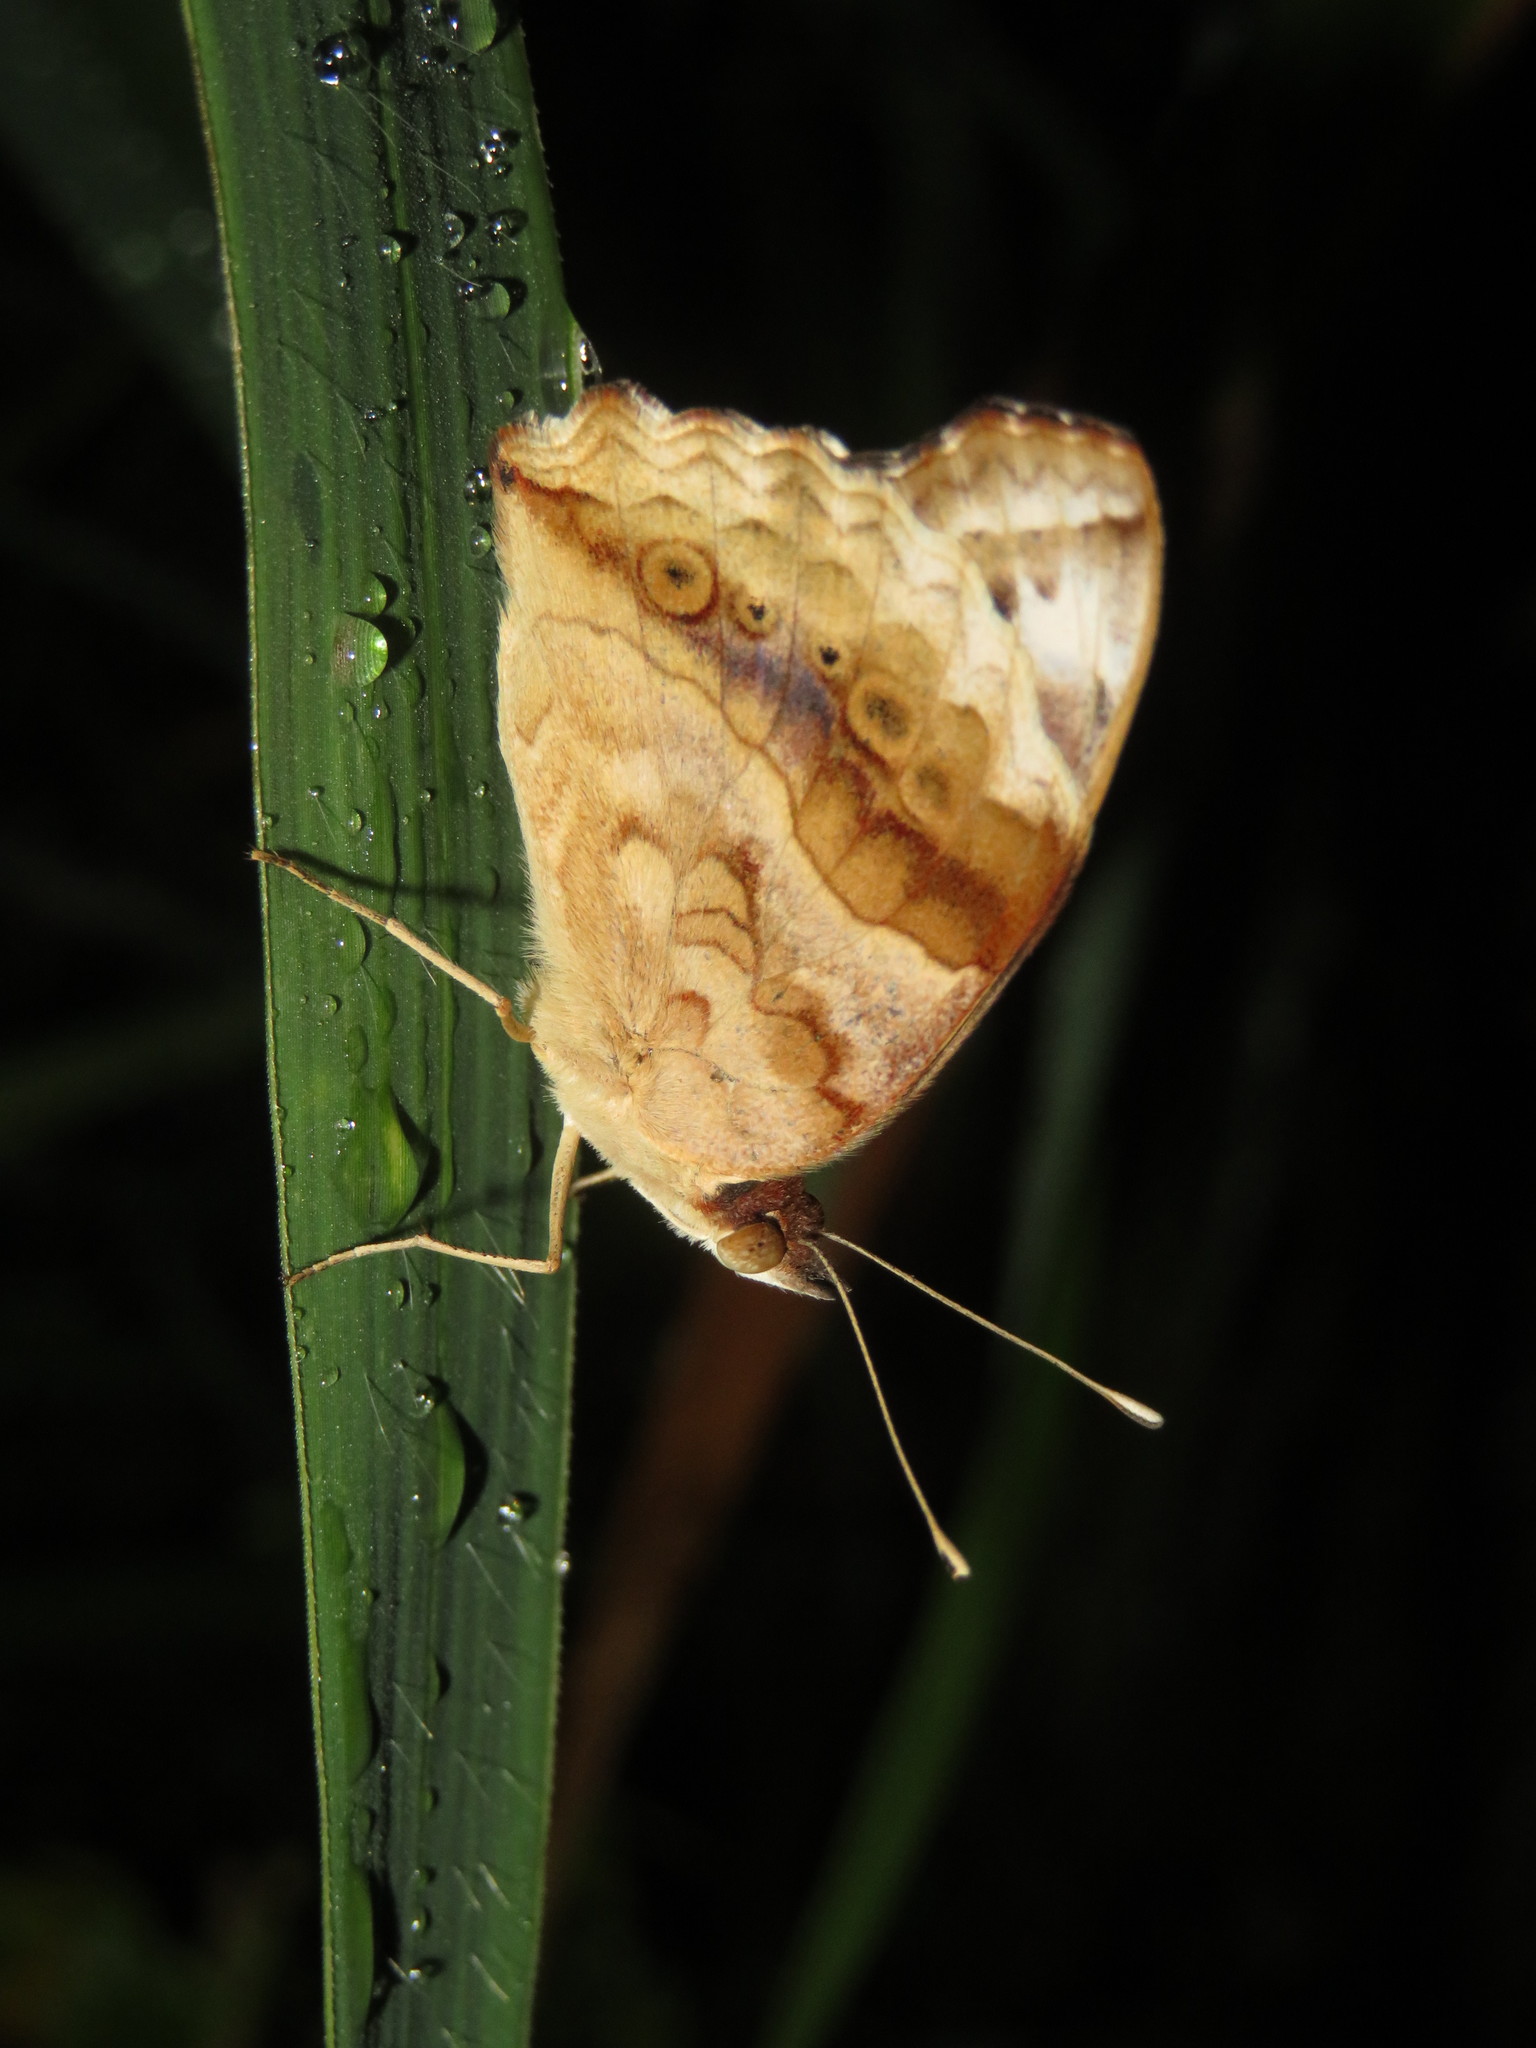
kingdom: Animalia
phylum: Arthropoda
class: Insecta
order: Lepidoptera
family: Nymphalidae
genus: Junonia
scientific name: Junonia oenone
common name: Dark blue pansy
